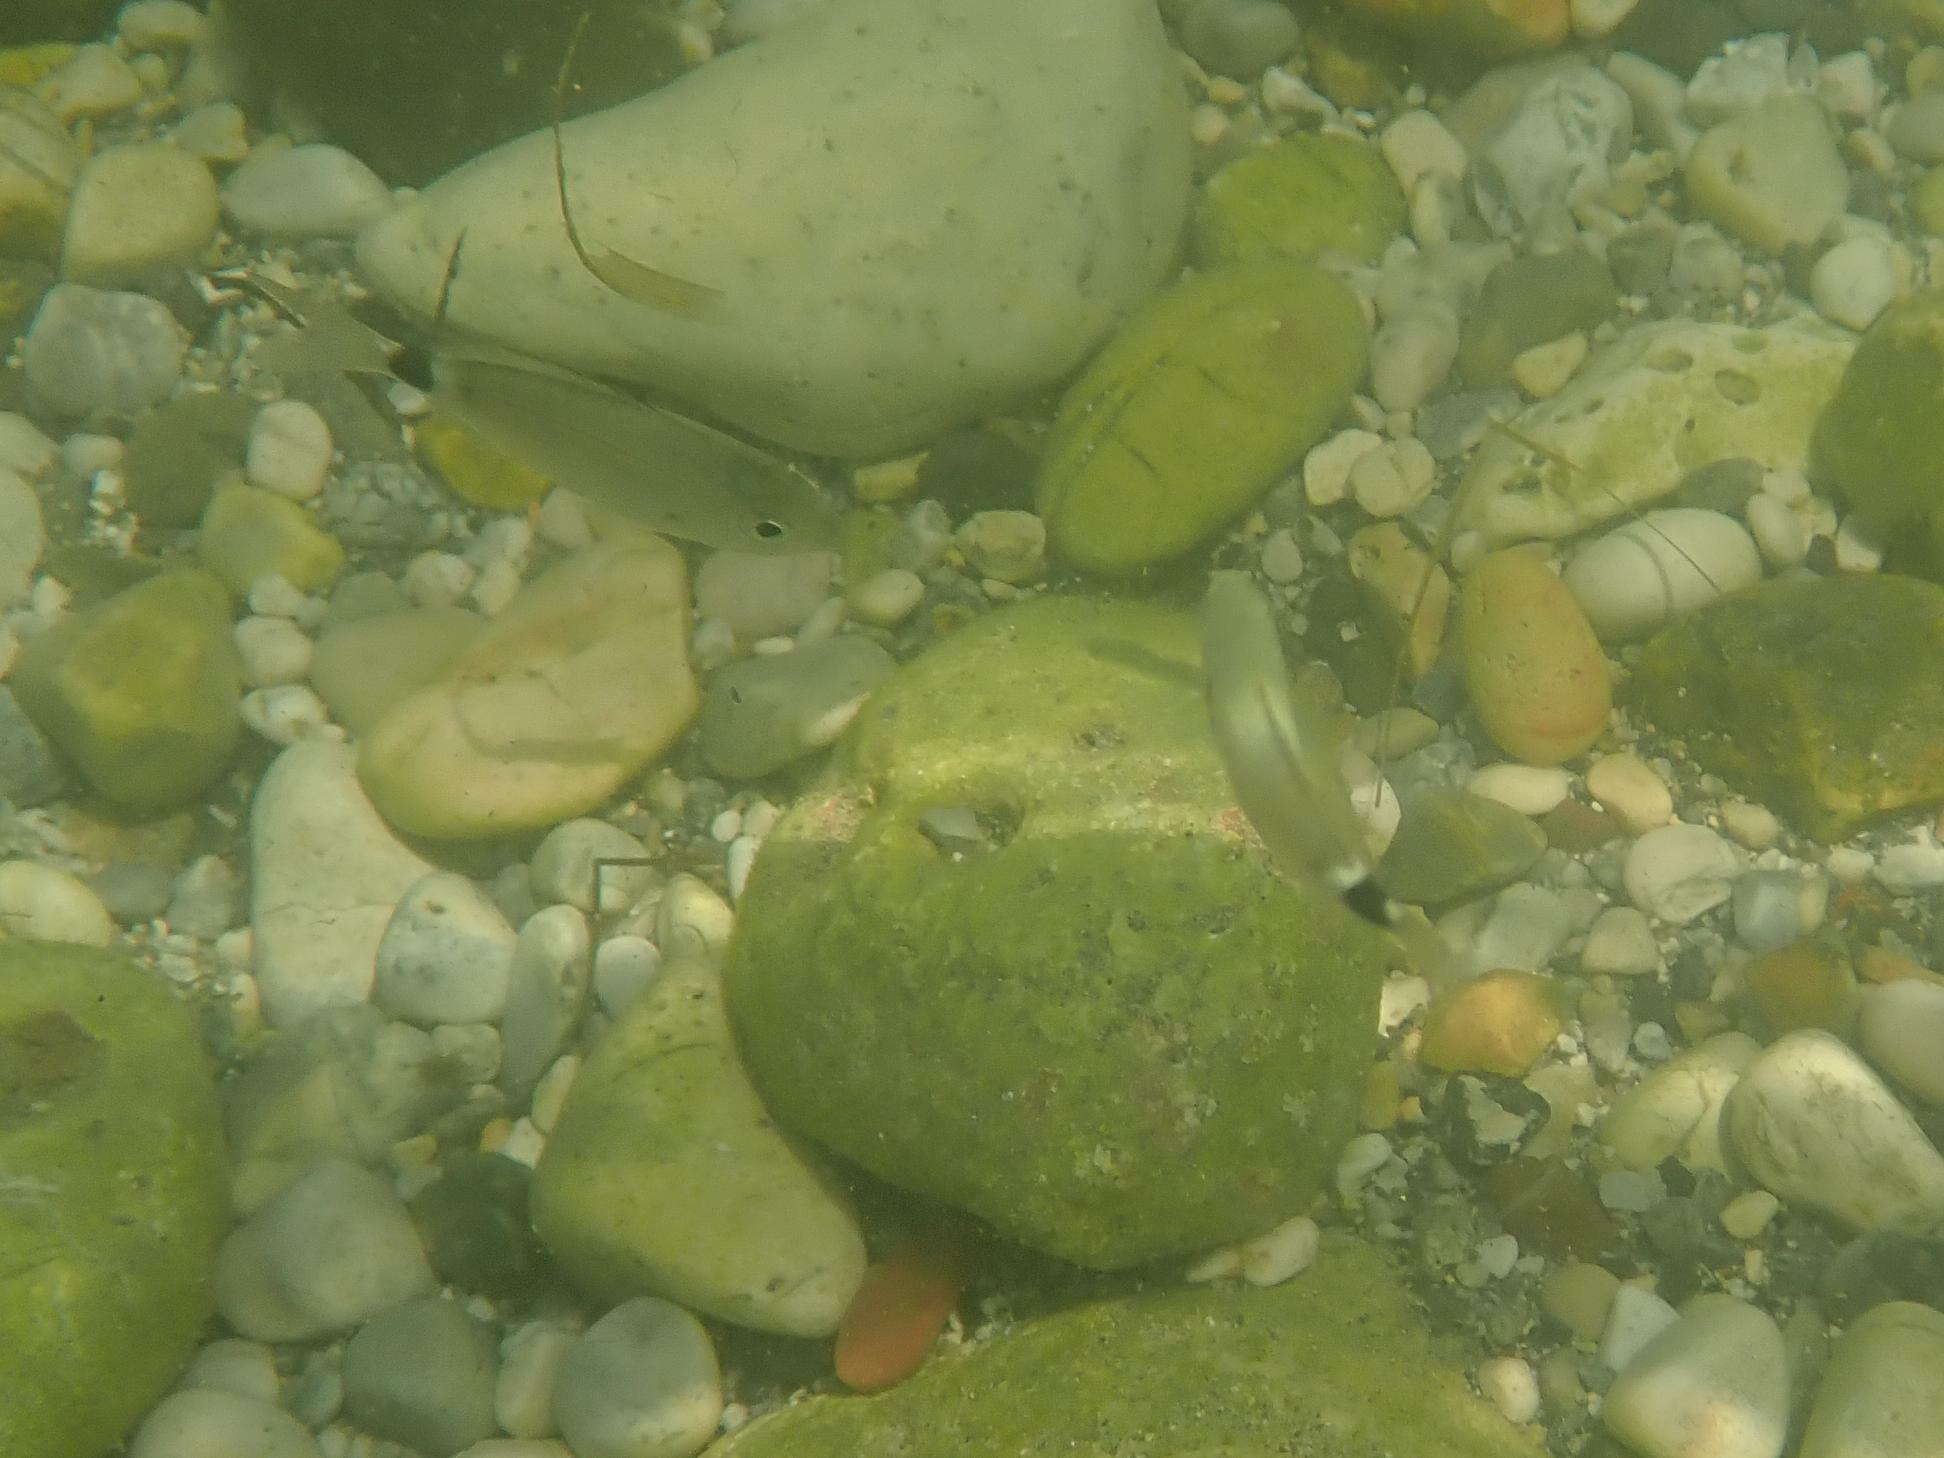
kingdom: Animalia
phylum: Chordata
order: Perciformes
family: Sparidae
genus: Oblada
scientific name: Oblada melanura
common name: Saddled seabream
